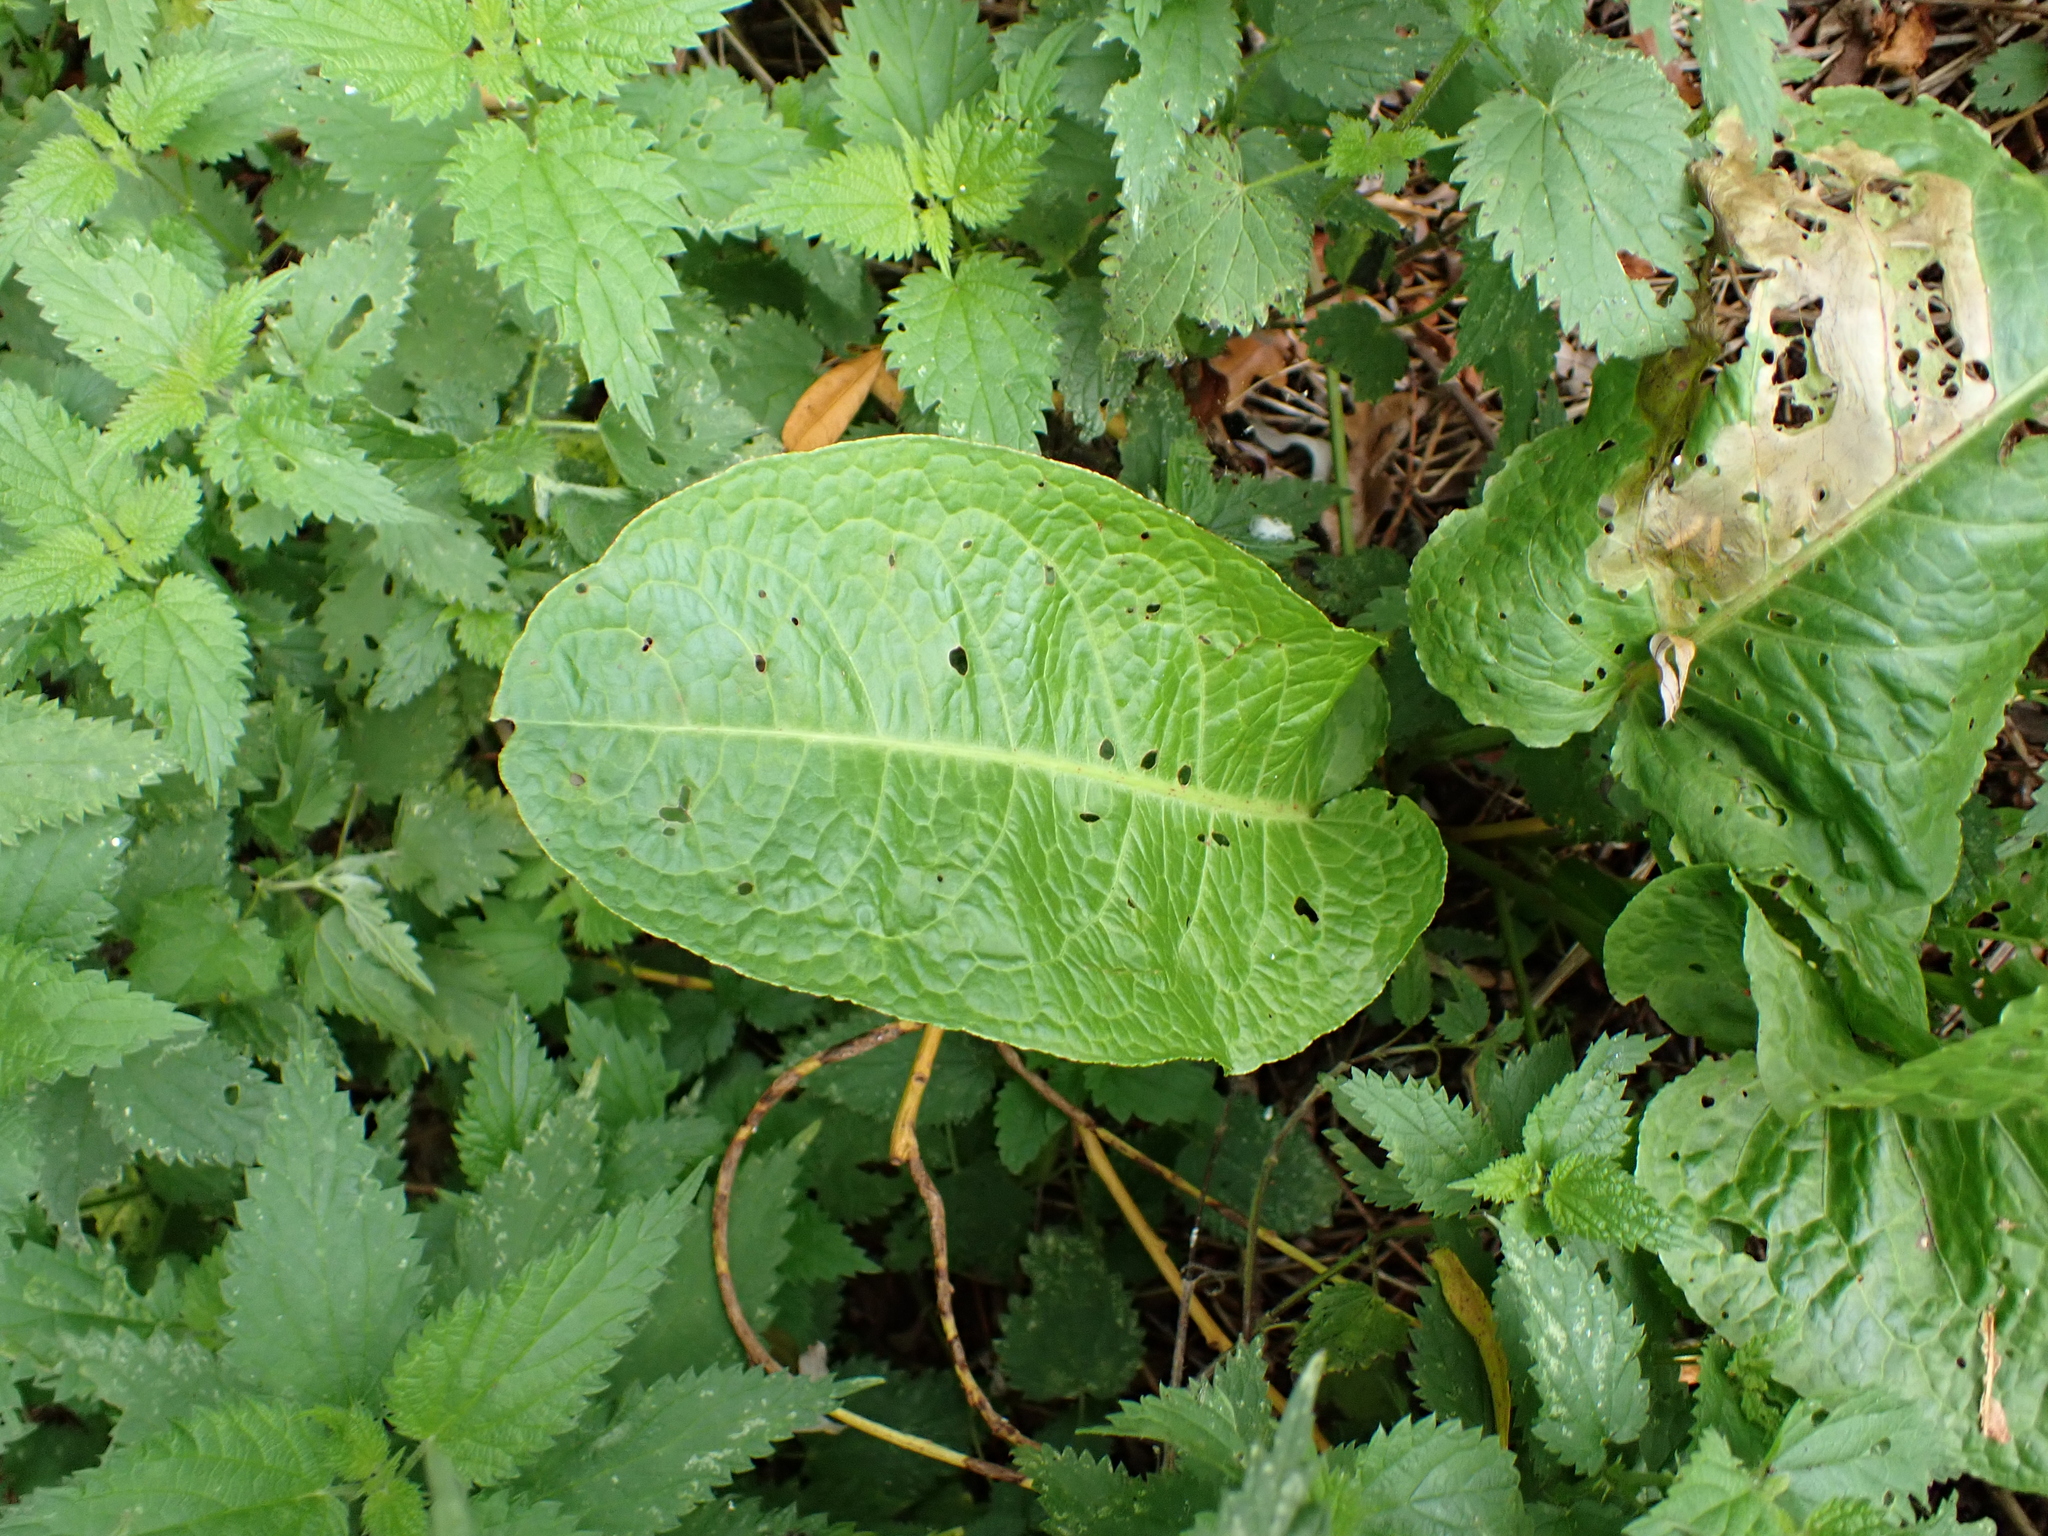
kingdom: Plantae
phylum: Tracheophyta
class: Magnoliopsida
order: Caryophyllales
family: Polygonaceae
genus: Rumex
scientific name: Rumex obtusifolius
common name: Bitter dock
